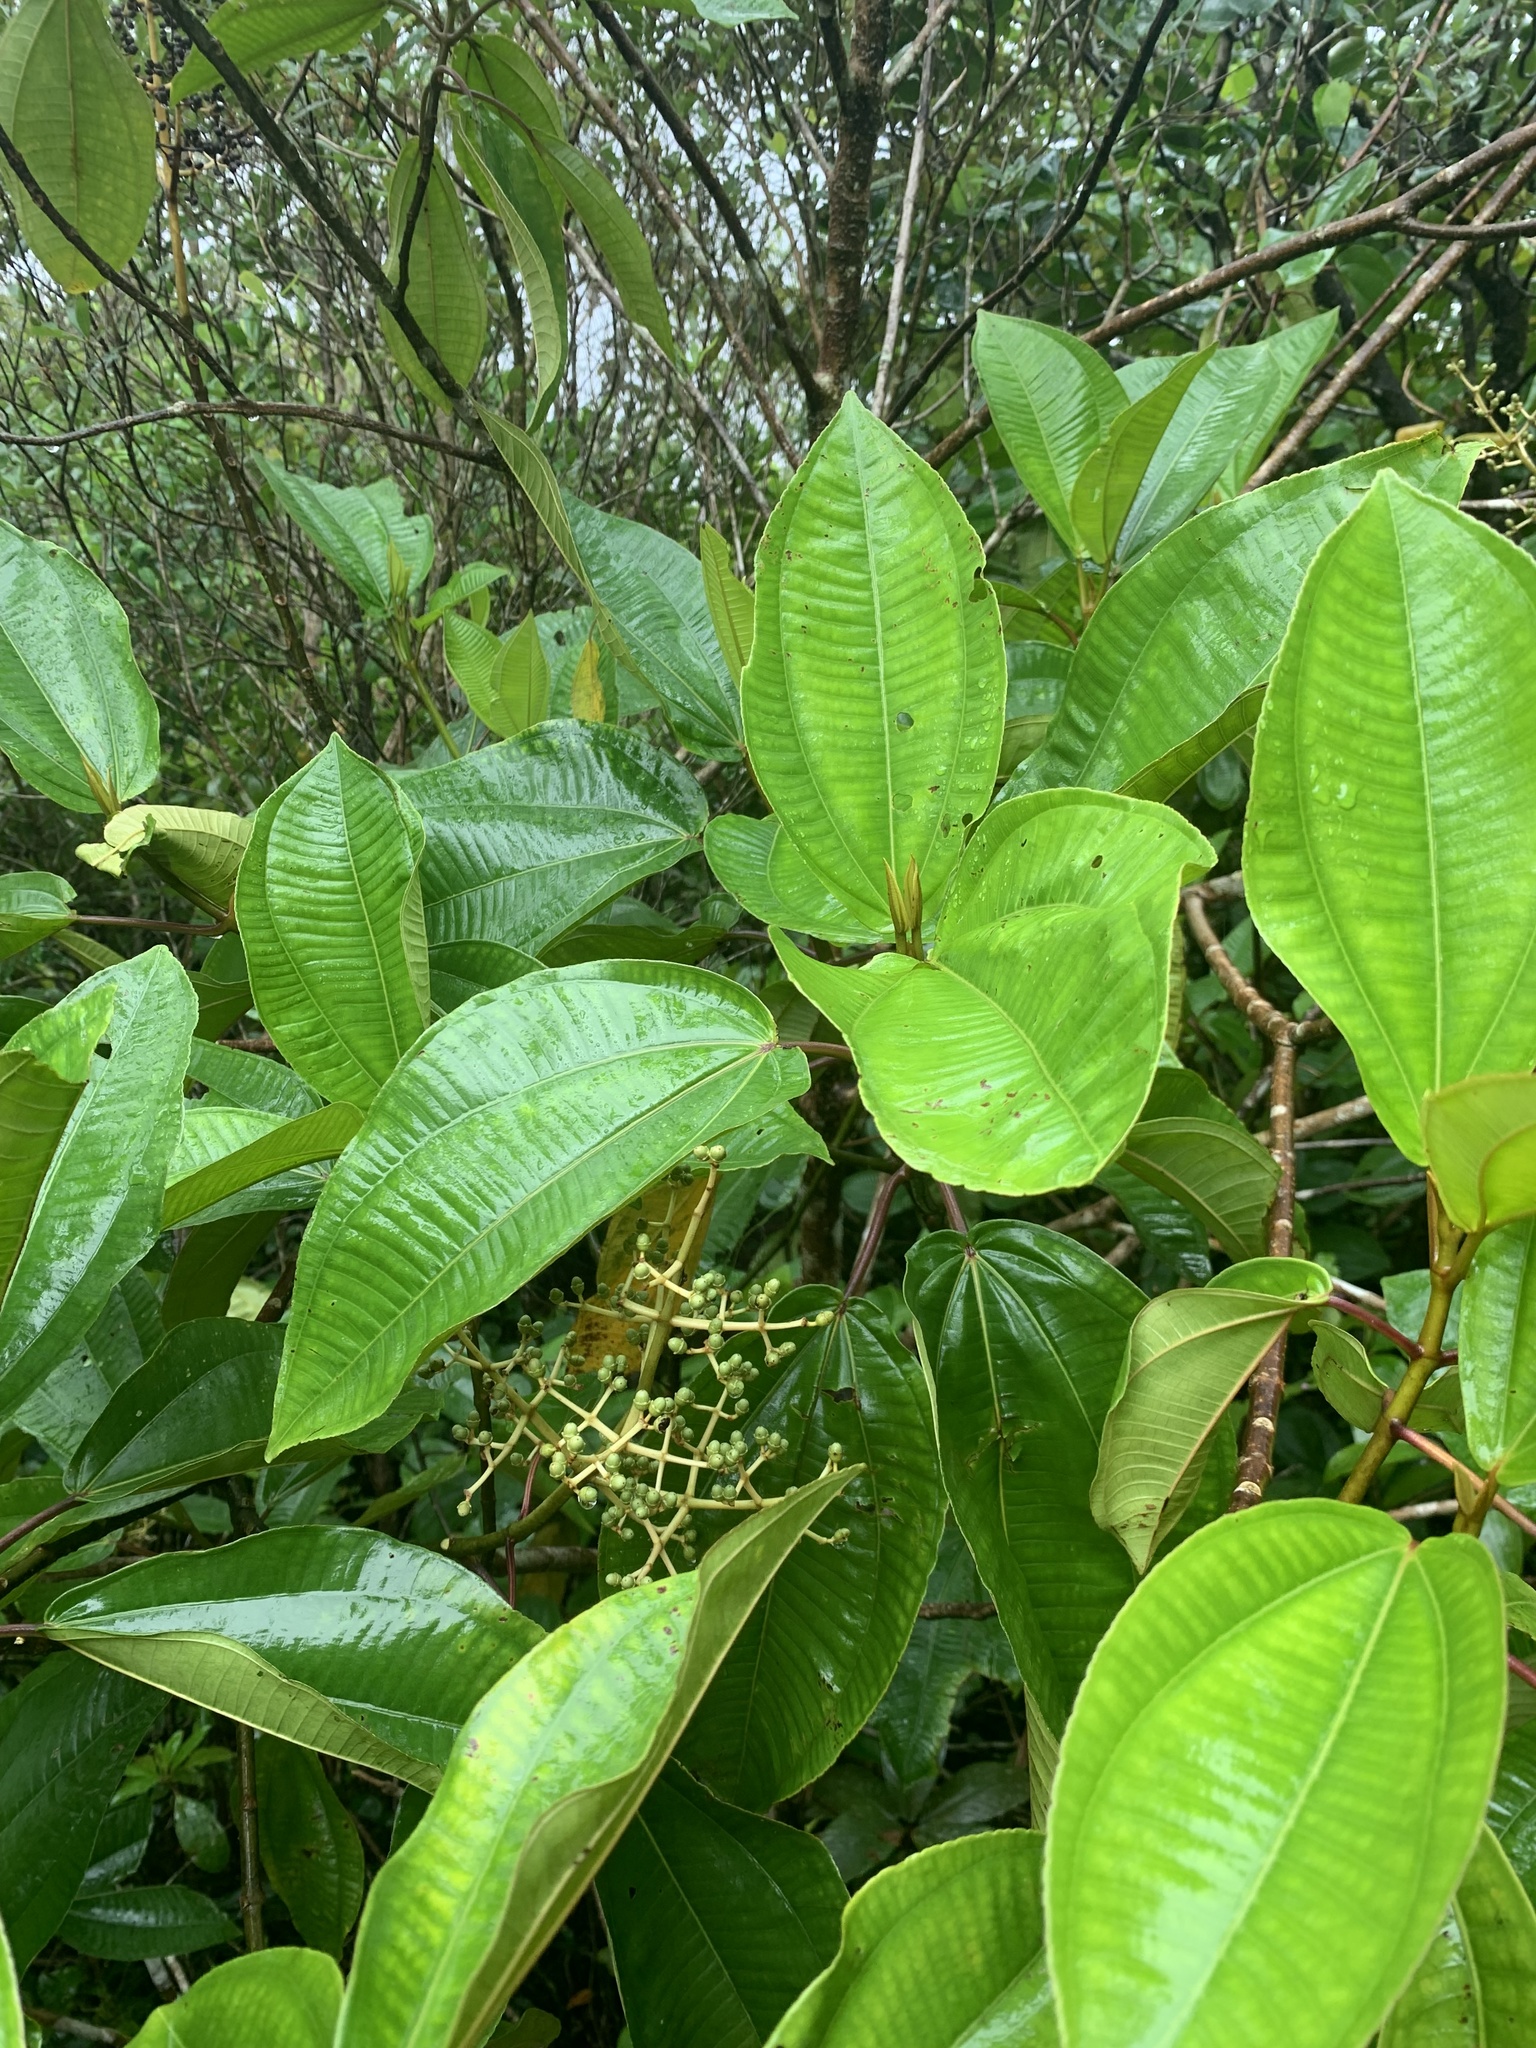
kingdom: Plantae
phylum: Tracheophyta
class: Magnoliopsida
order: Myrtales
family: Melastomataceae
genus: Graffenrieda
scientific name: Graffenrieda galeottii
